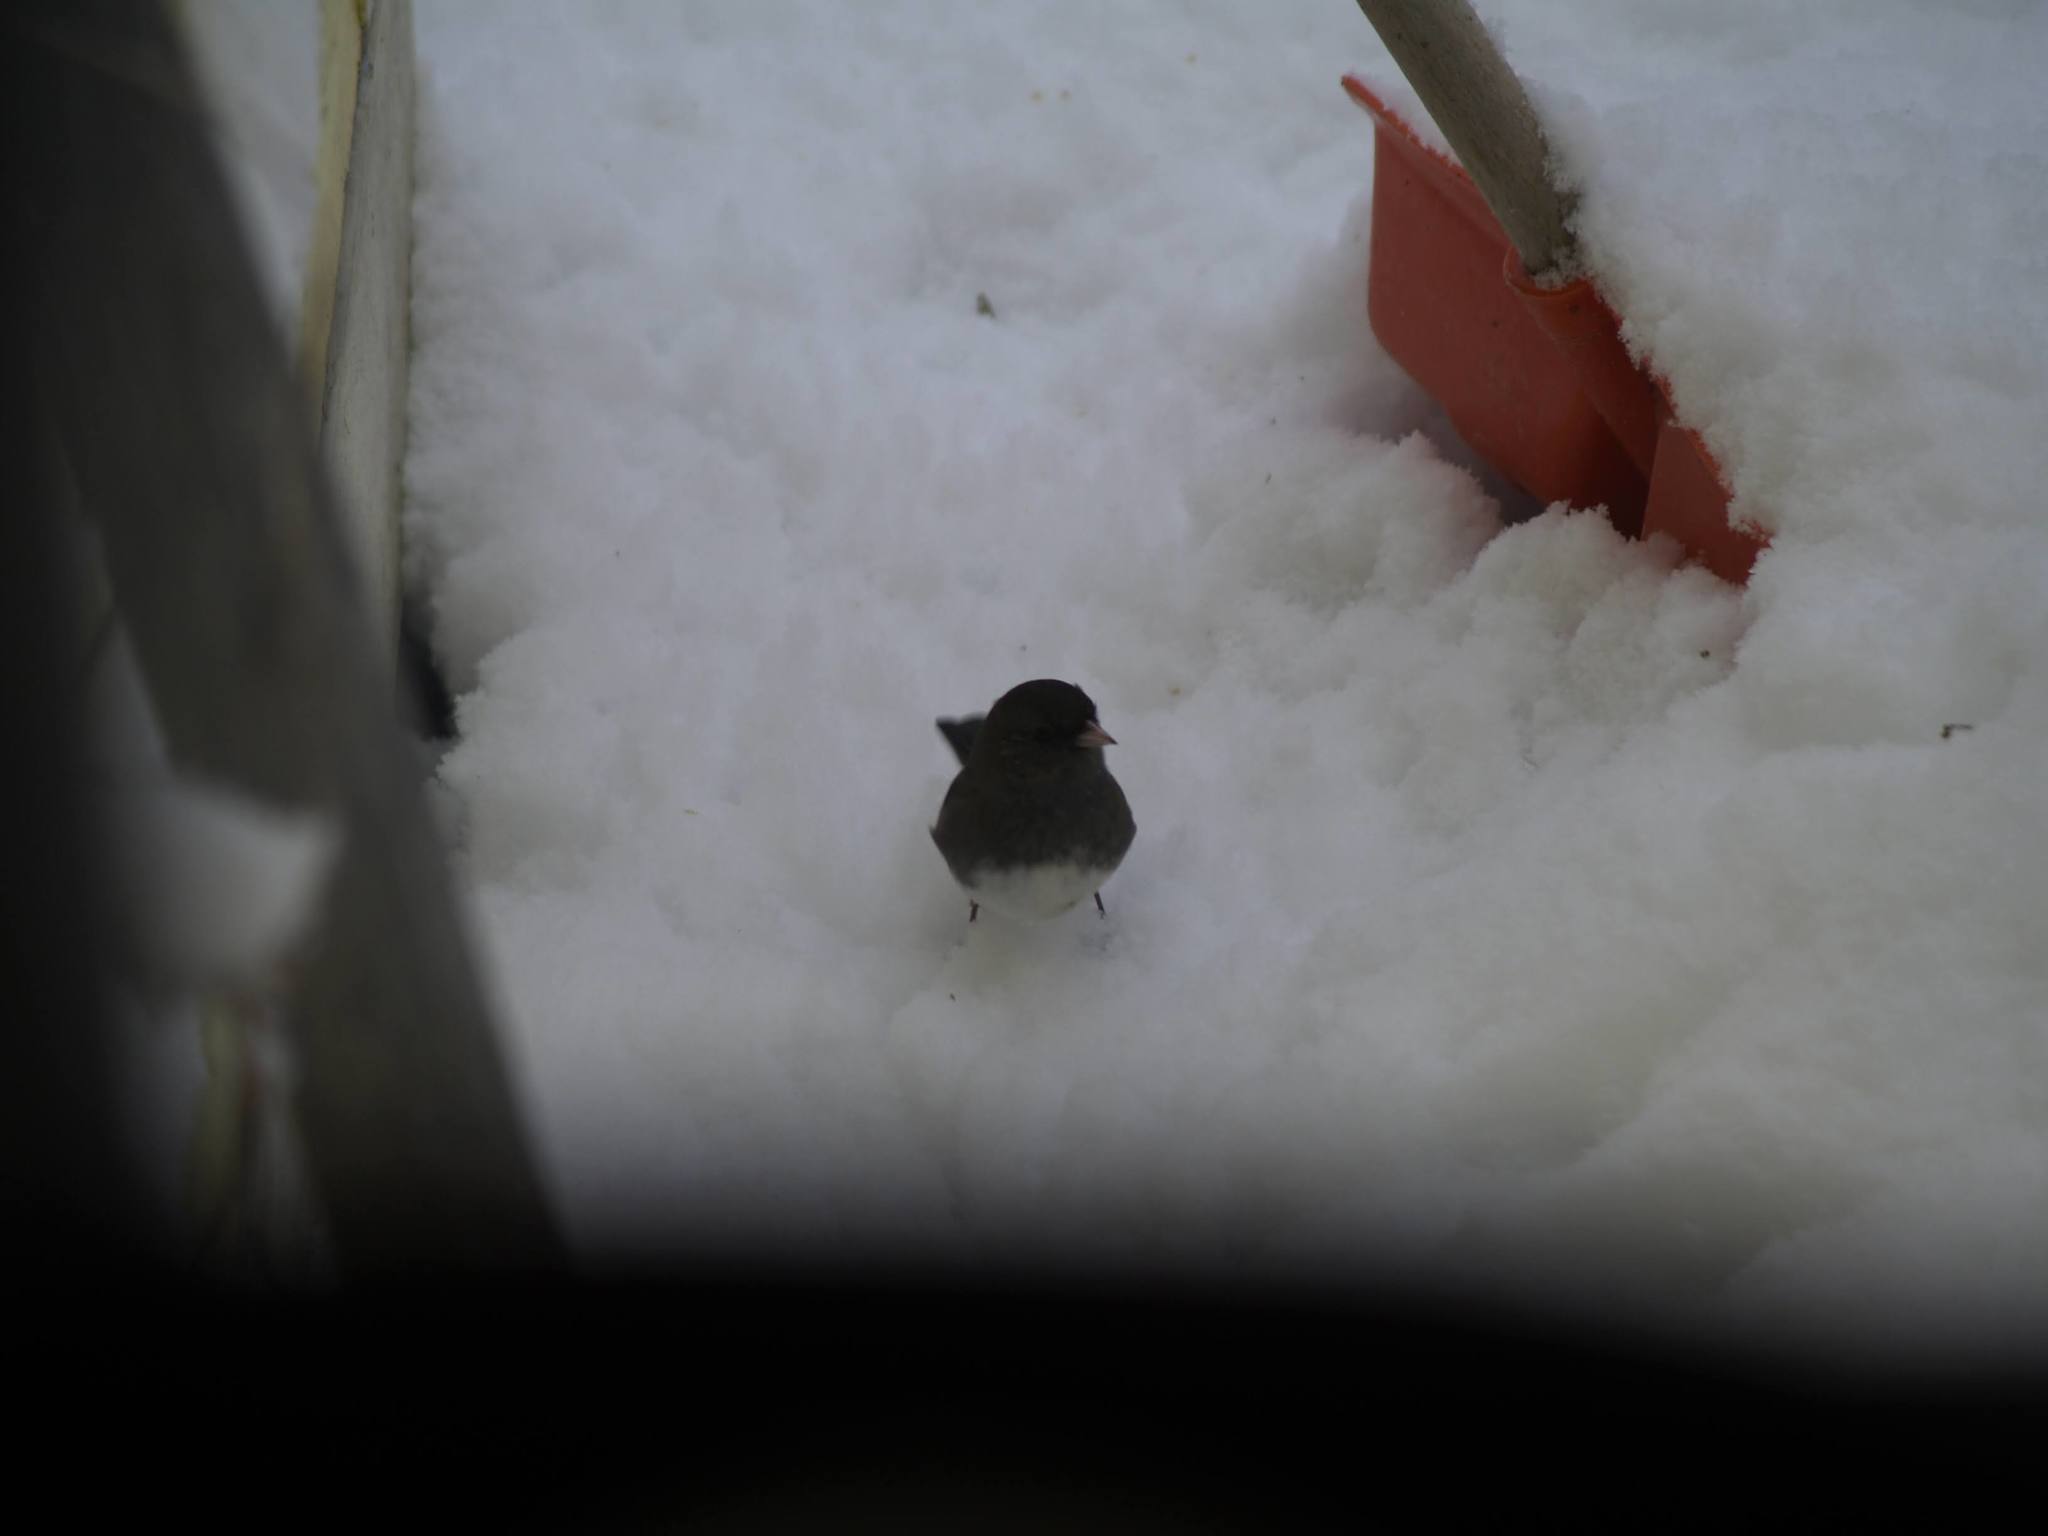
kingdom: Animalia
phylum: Chordata
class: Aves
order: Passeriformes
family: Passerellidae
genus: Junco
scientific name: Junco hyemalis
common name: Dark-eyed junco
